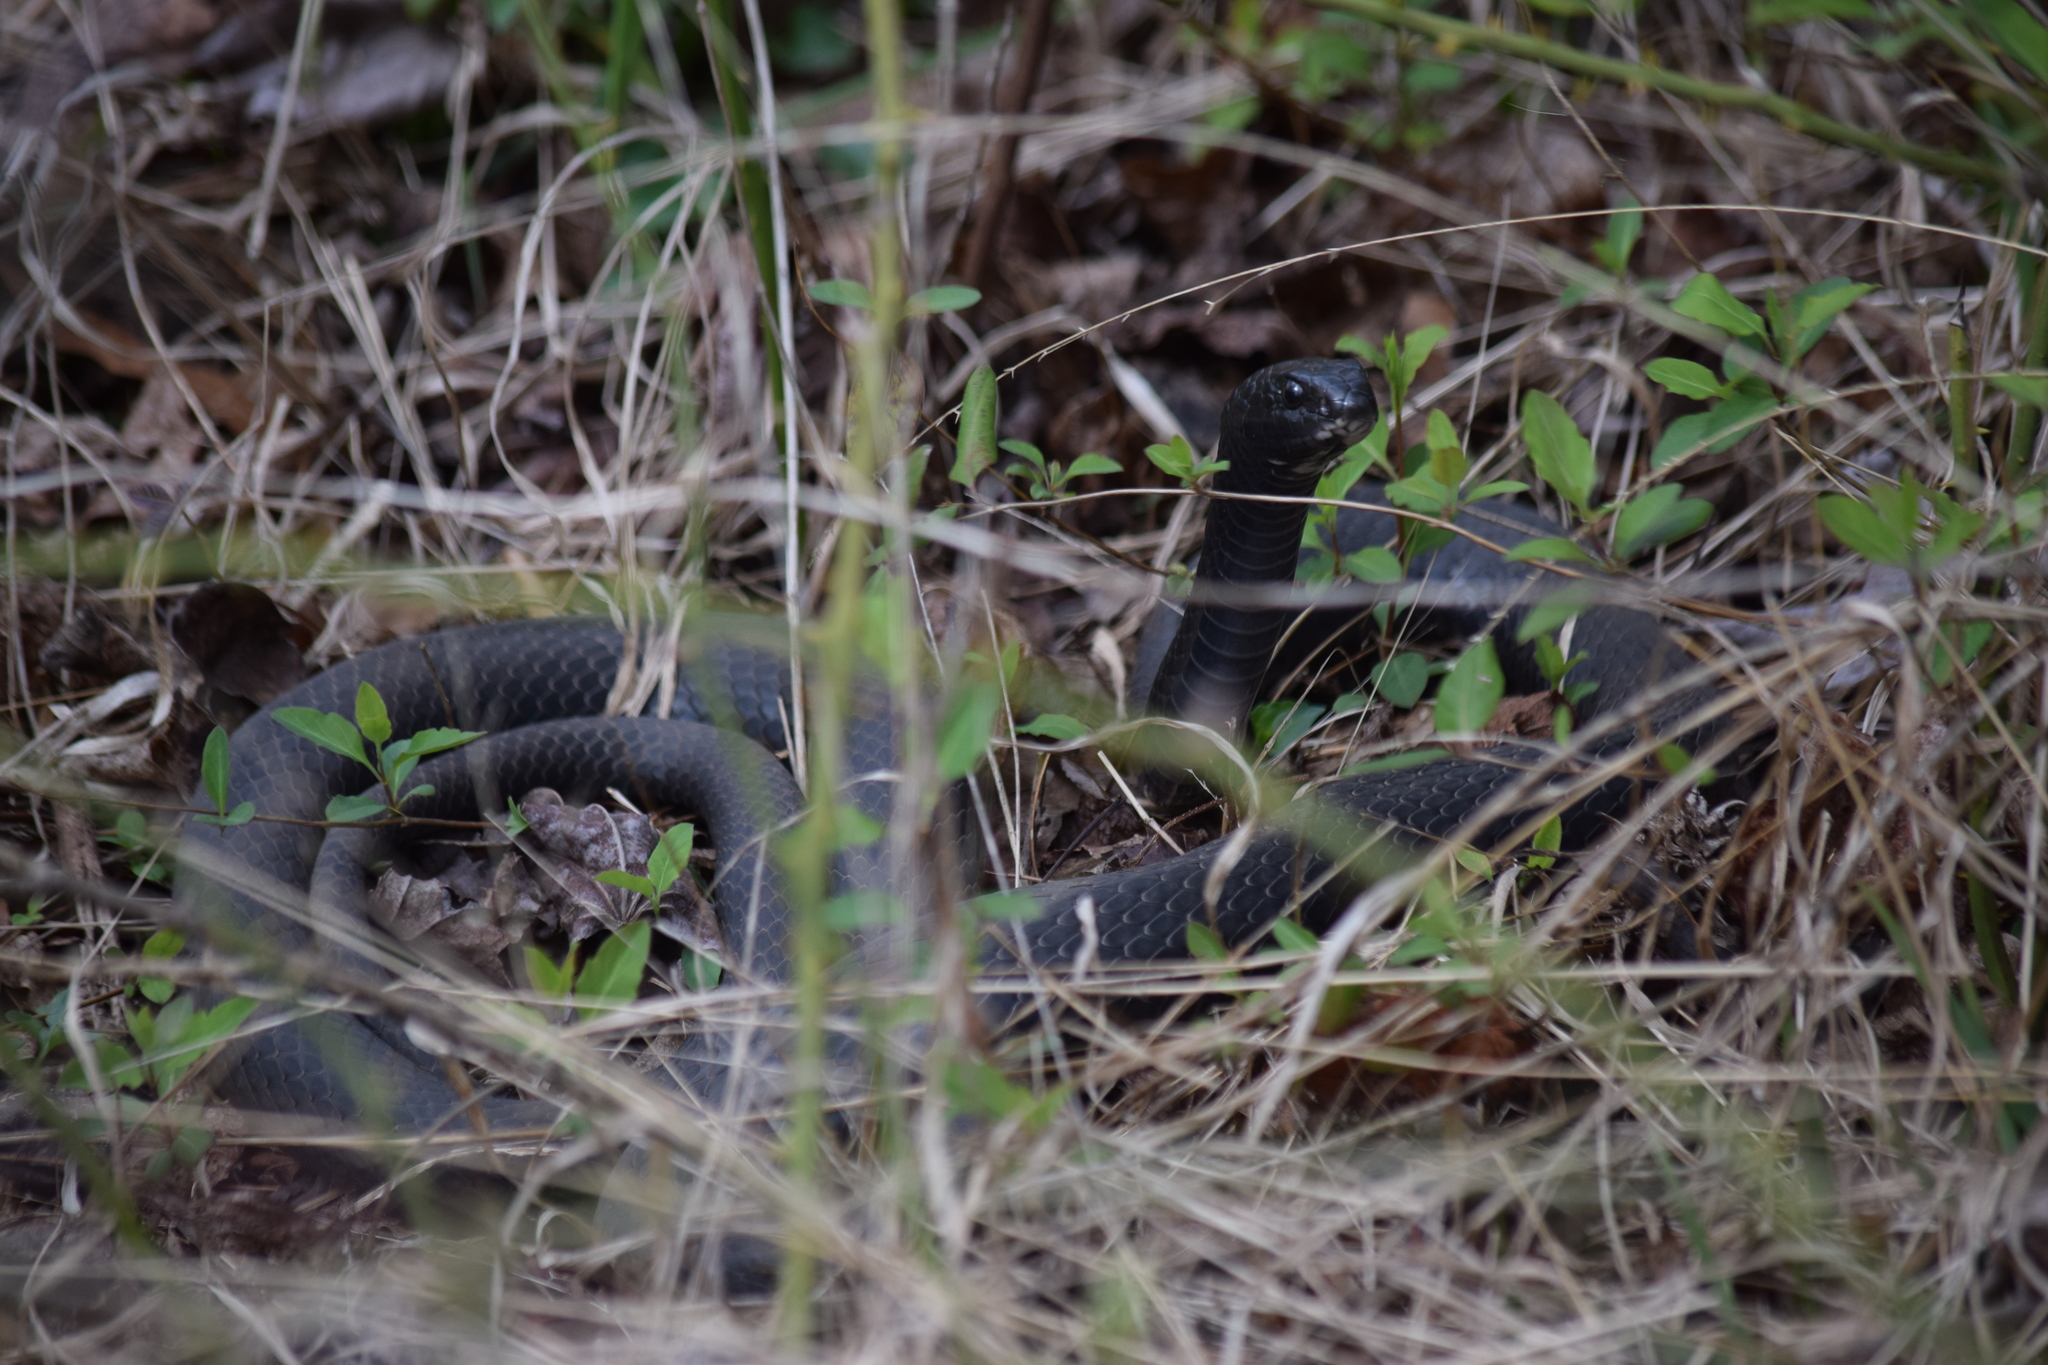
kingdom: Animalia
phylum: Chordata
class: Squamata
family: Colubridae
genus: Coluber
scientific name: Coluber constrictor
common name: Eastern racer
